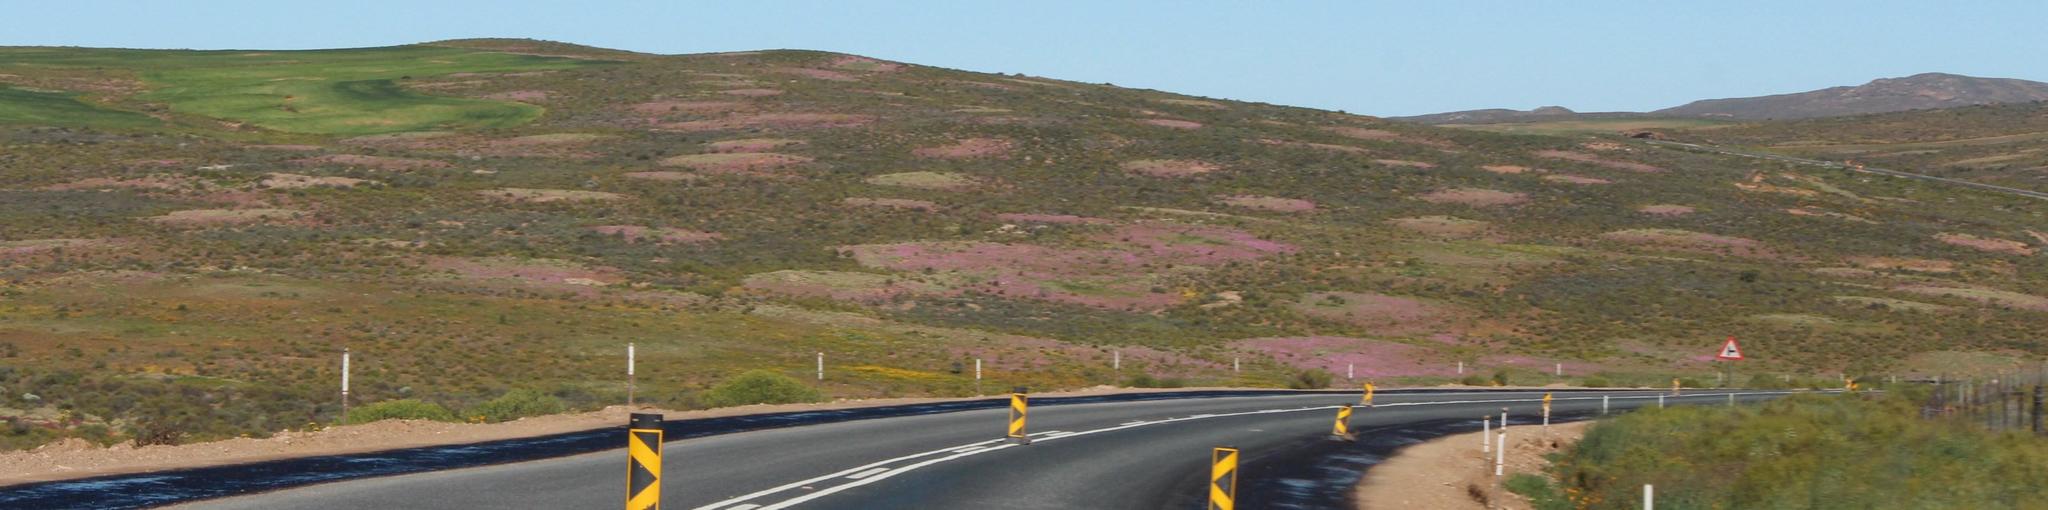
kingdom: Animalia
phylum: Arthropoda
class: Insecta
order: Blattodea
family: Hodotermitidae
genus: Microhodotermes
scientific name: Microhodotermes viator
